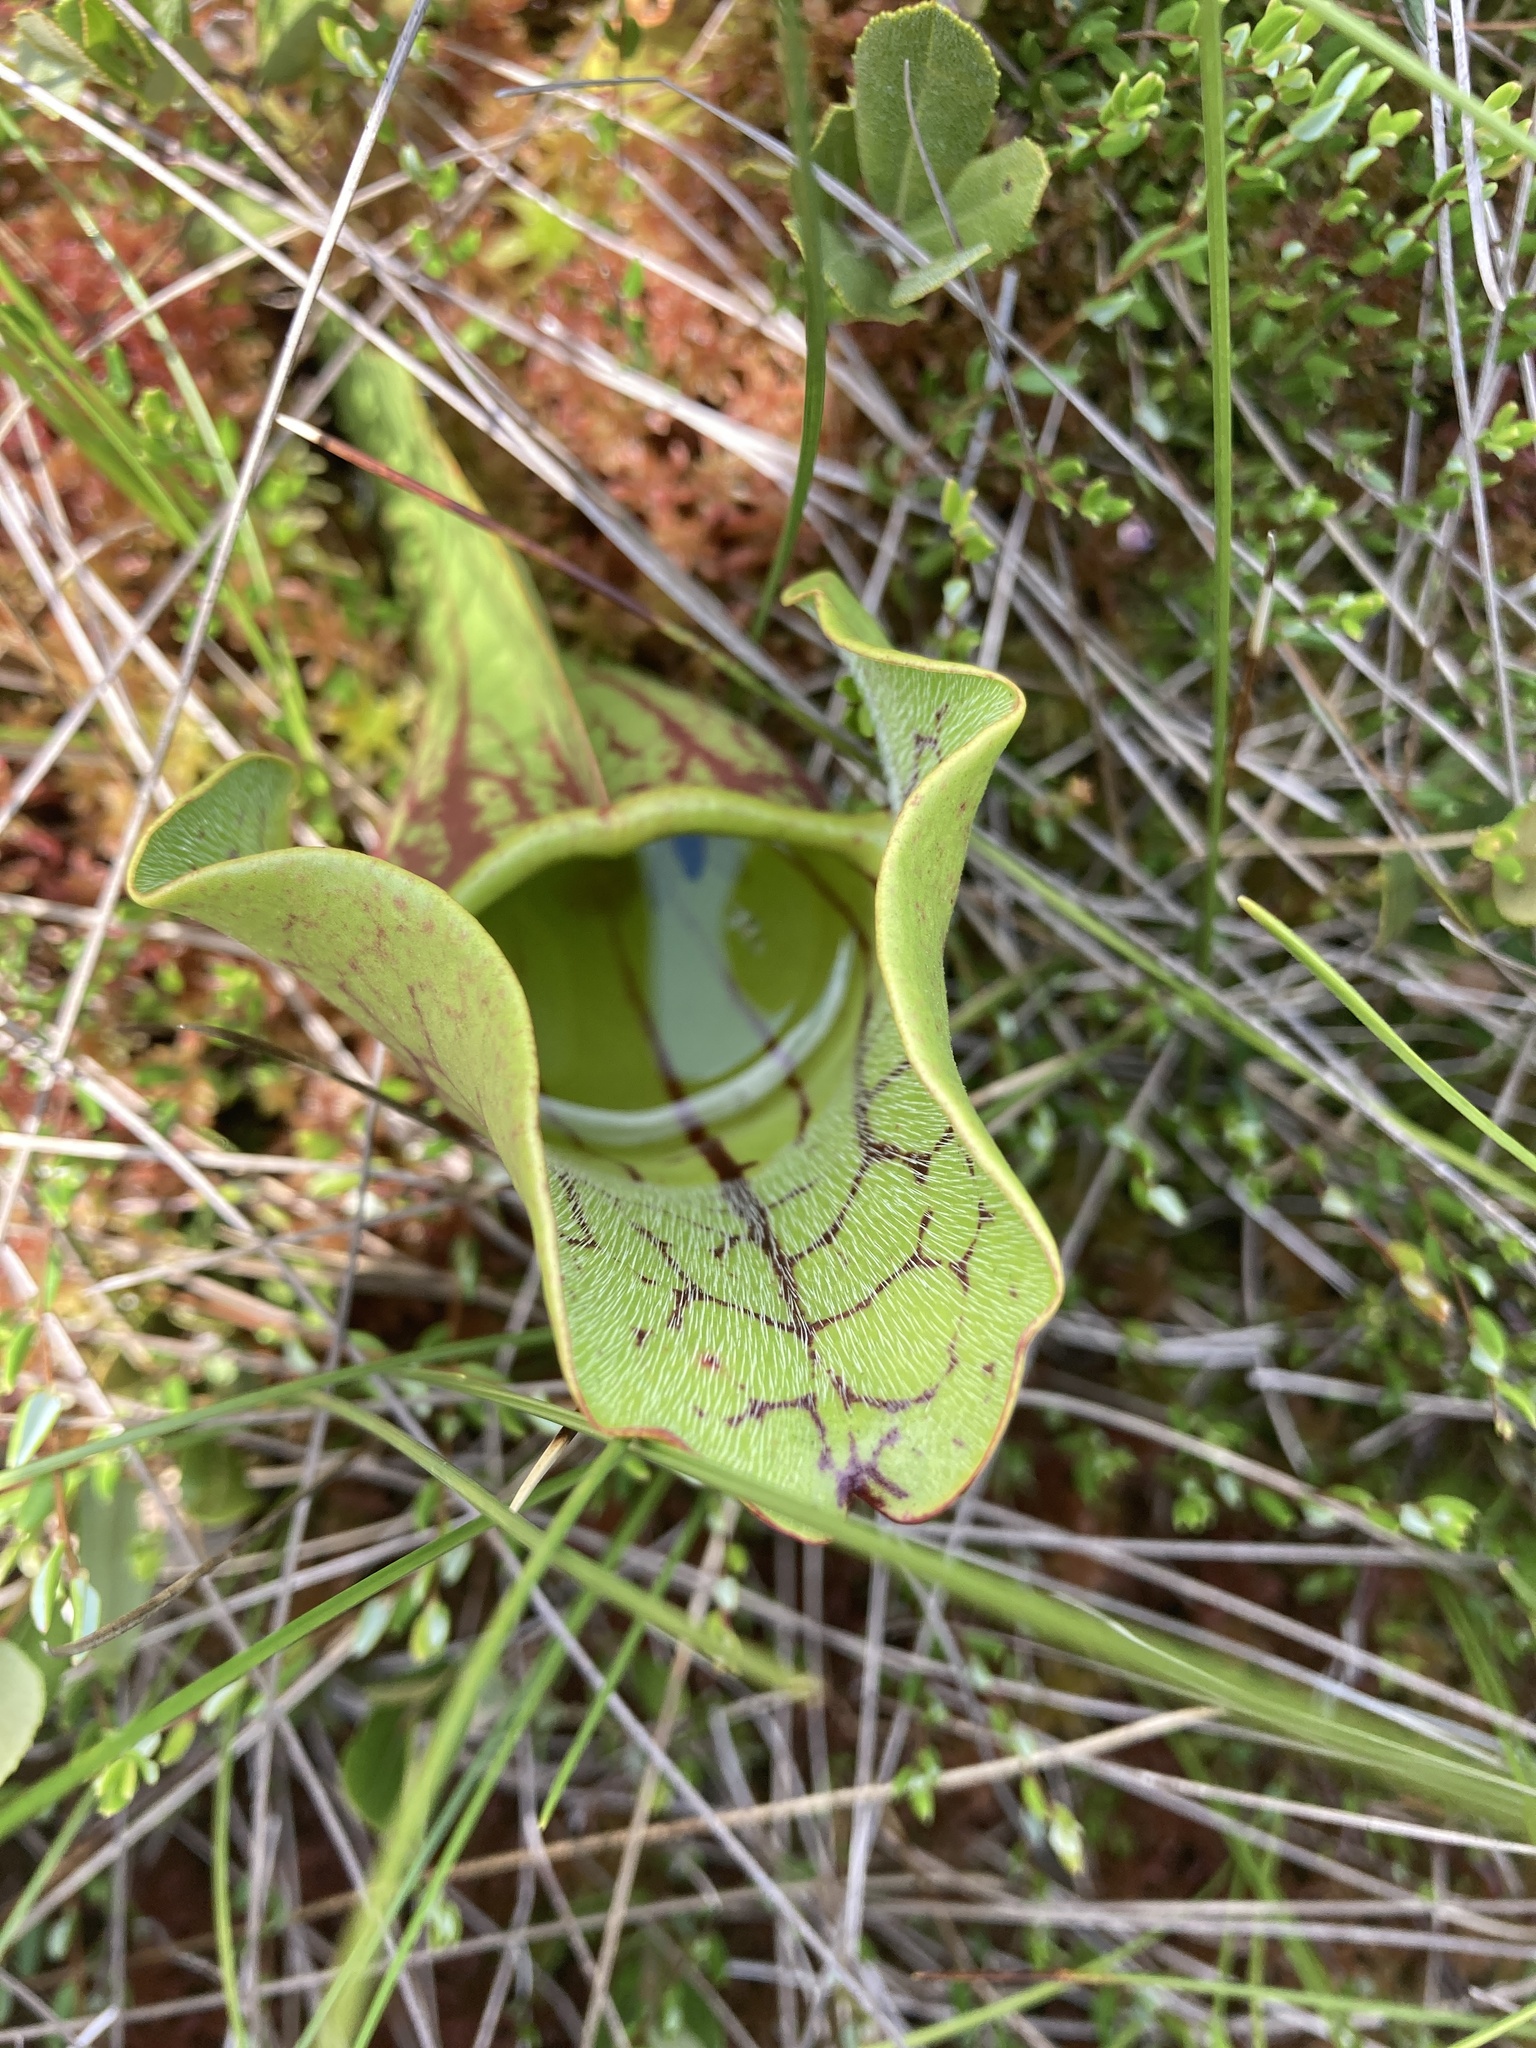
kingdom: Plantae
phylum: Tracheophyta
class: Magnoliopsida
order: Ericales
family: Sarraceniaceae
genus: Sarracenia
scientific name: Sarracenia purpurea
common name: Pitcherplant
